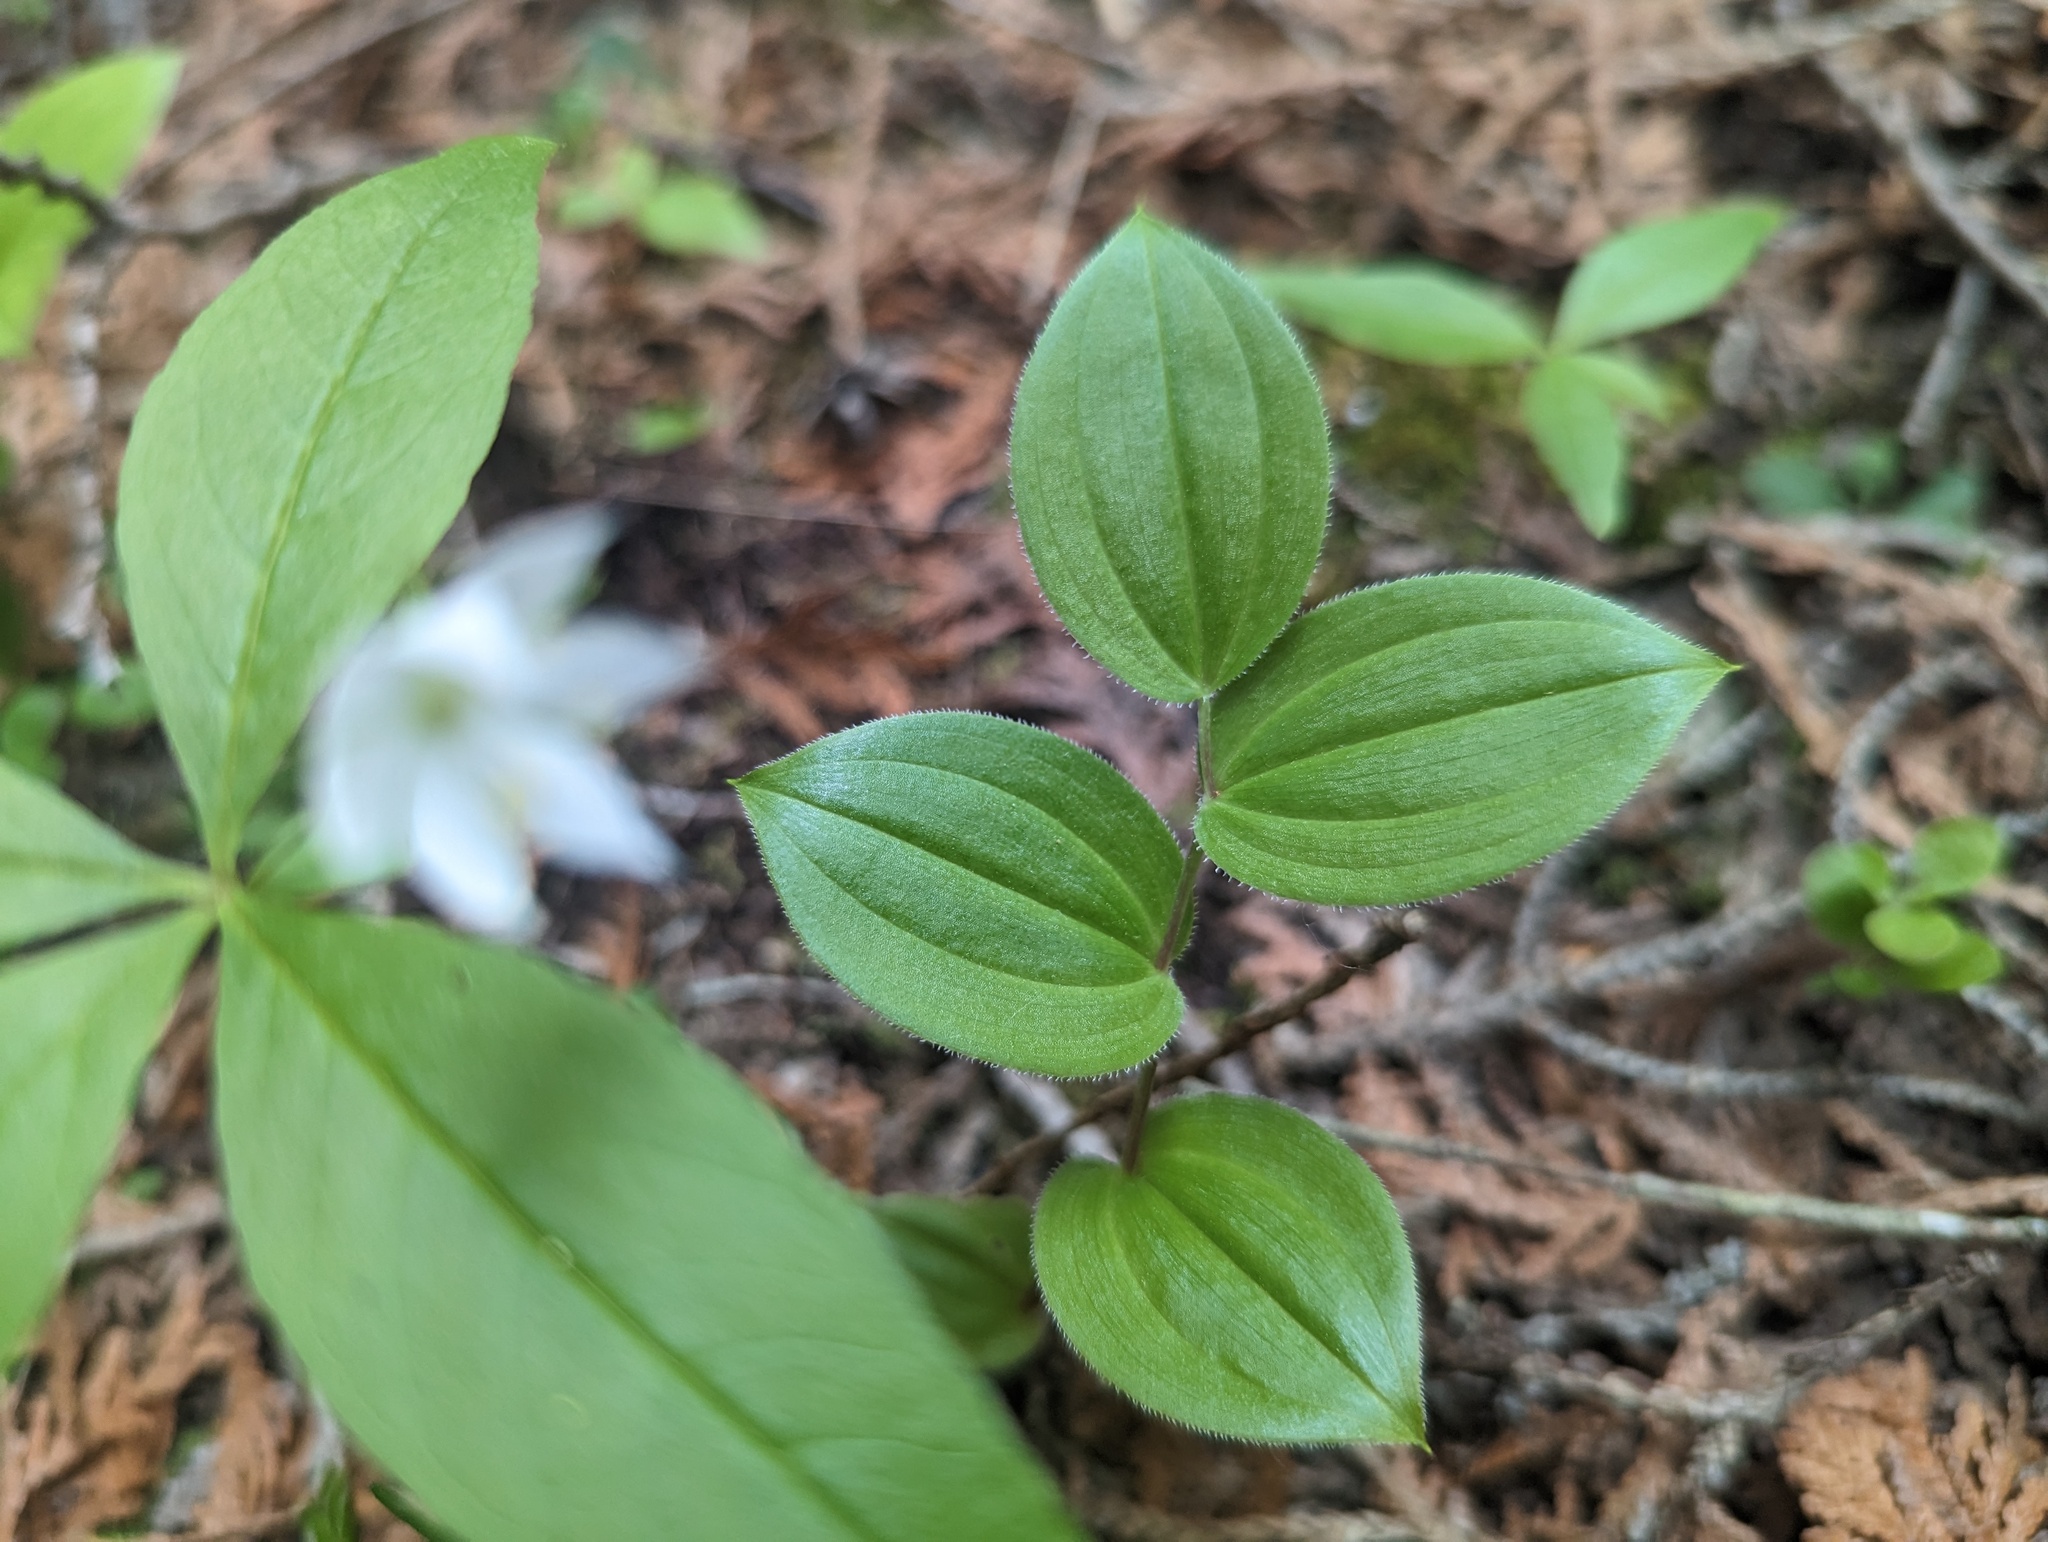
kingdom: Plantae
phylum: Tracheophyta
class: Liliopsida
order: Liliales
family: Liliaceae
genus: Streptopus
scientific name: Streptopus lanceolatus
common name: Rose mandarin
